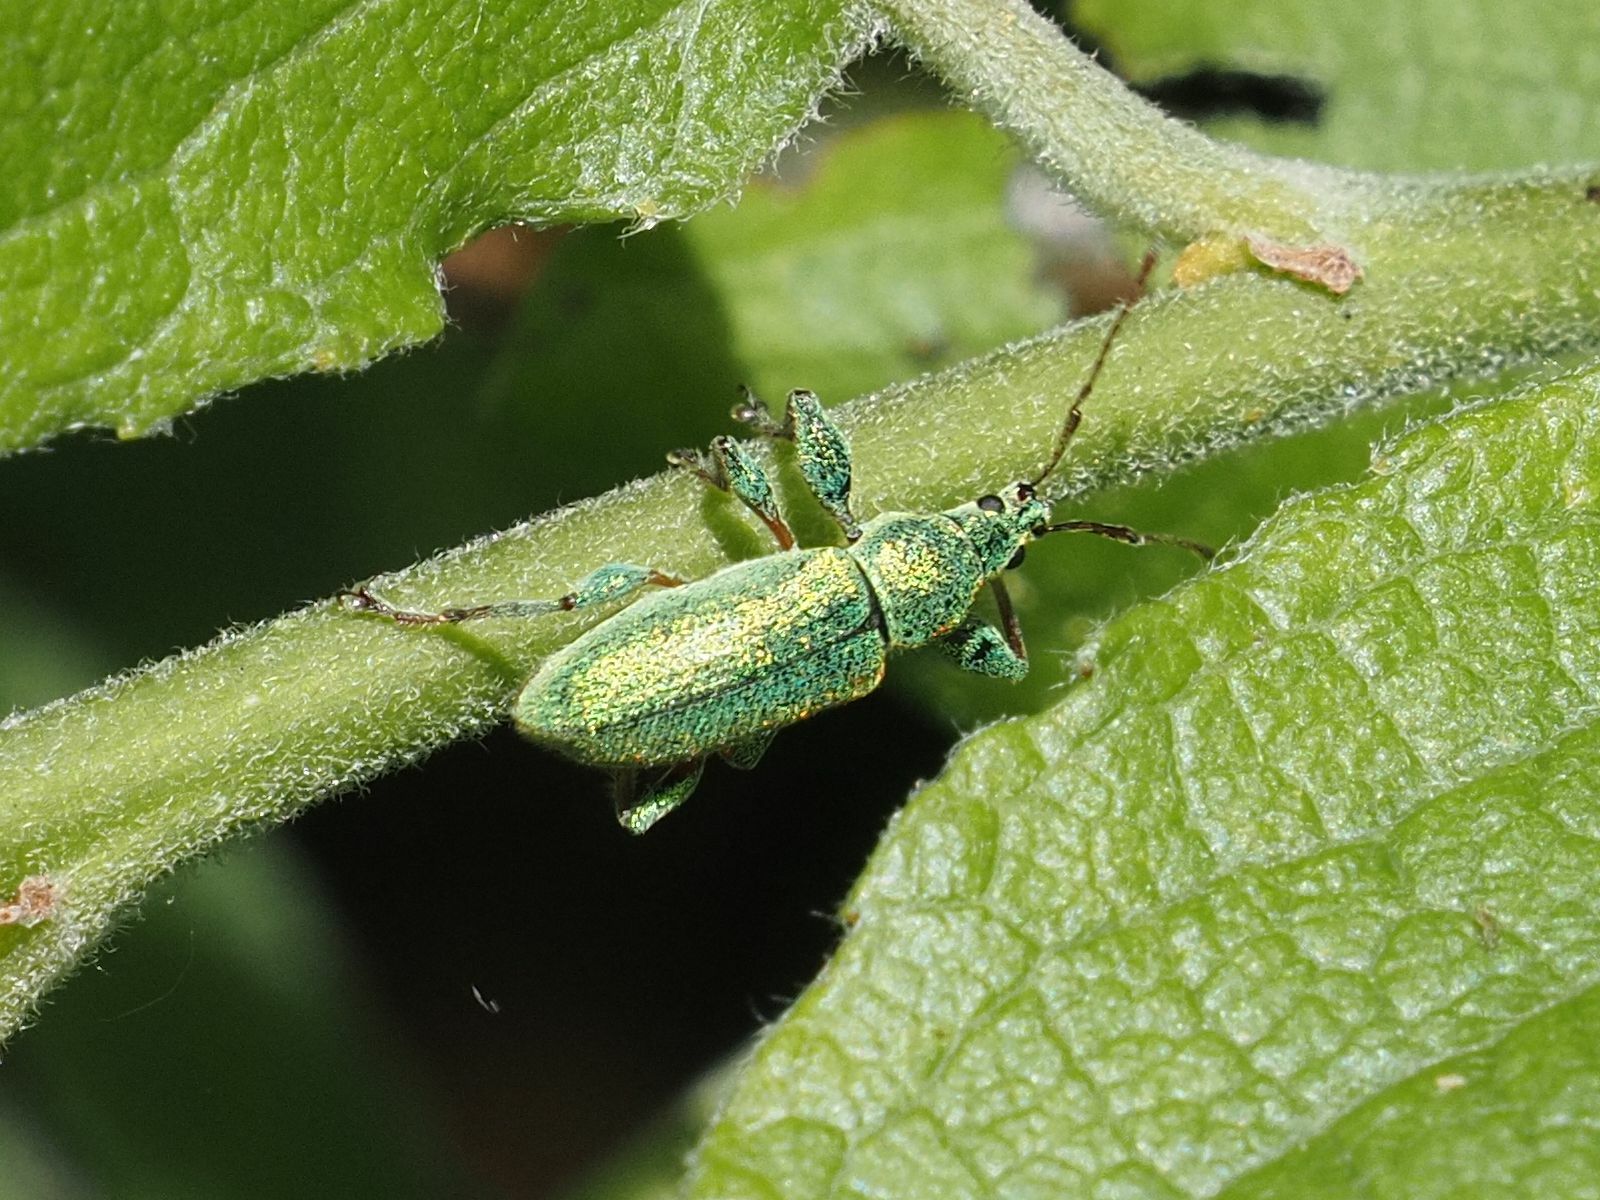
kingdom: Animalia
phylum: Arthropoda
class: Insecta
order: Coleoptera
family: Curculionidae
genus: Phyllobius
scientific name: Phyllobius arborator
